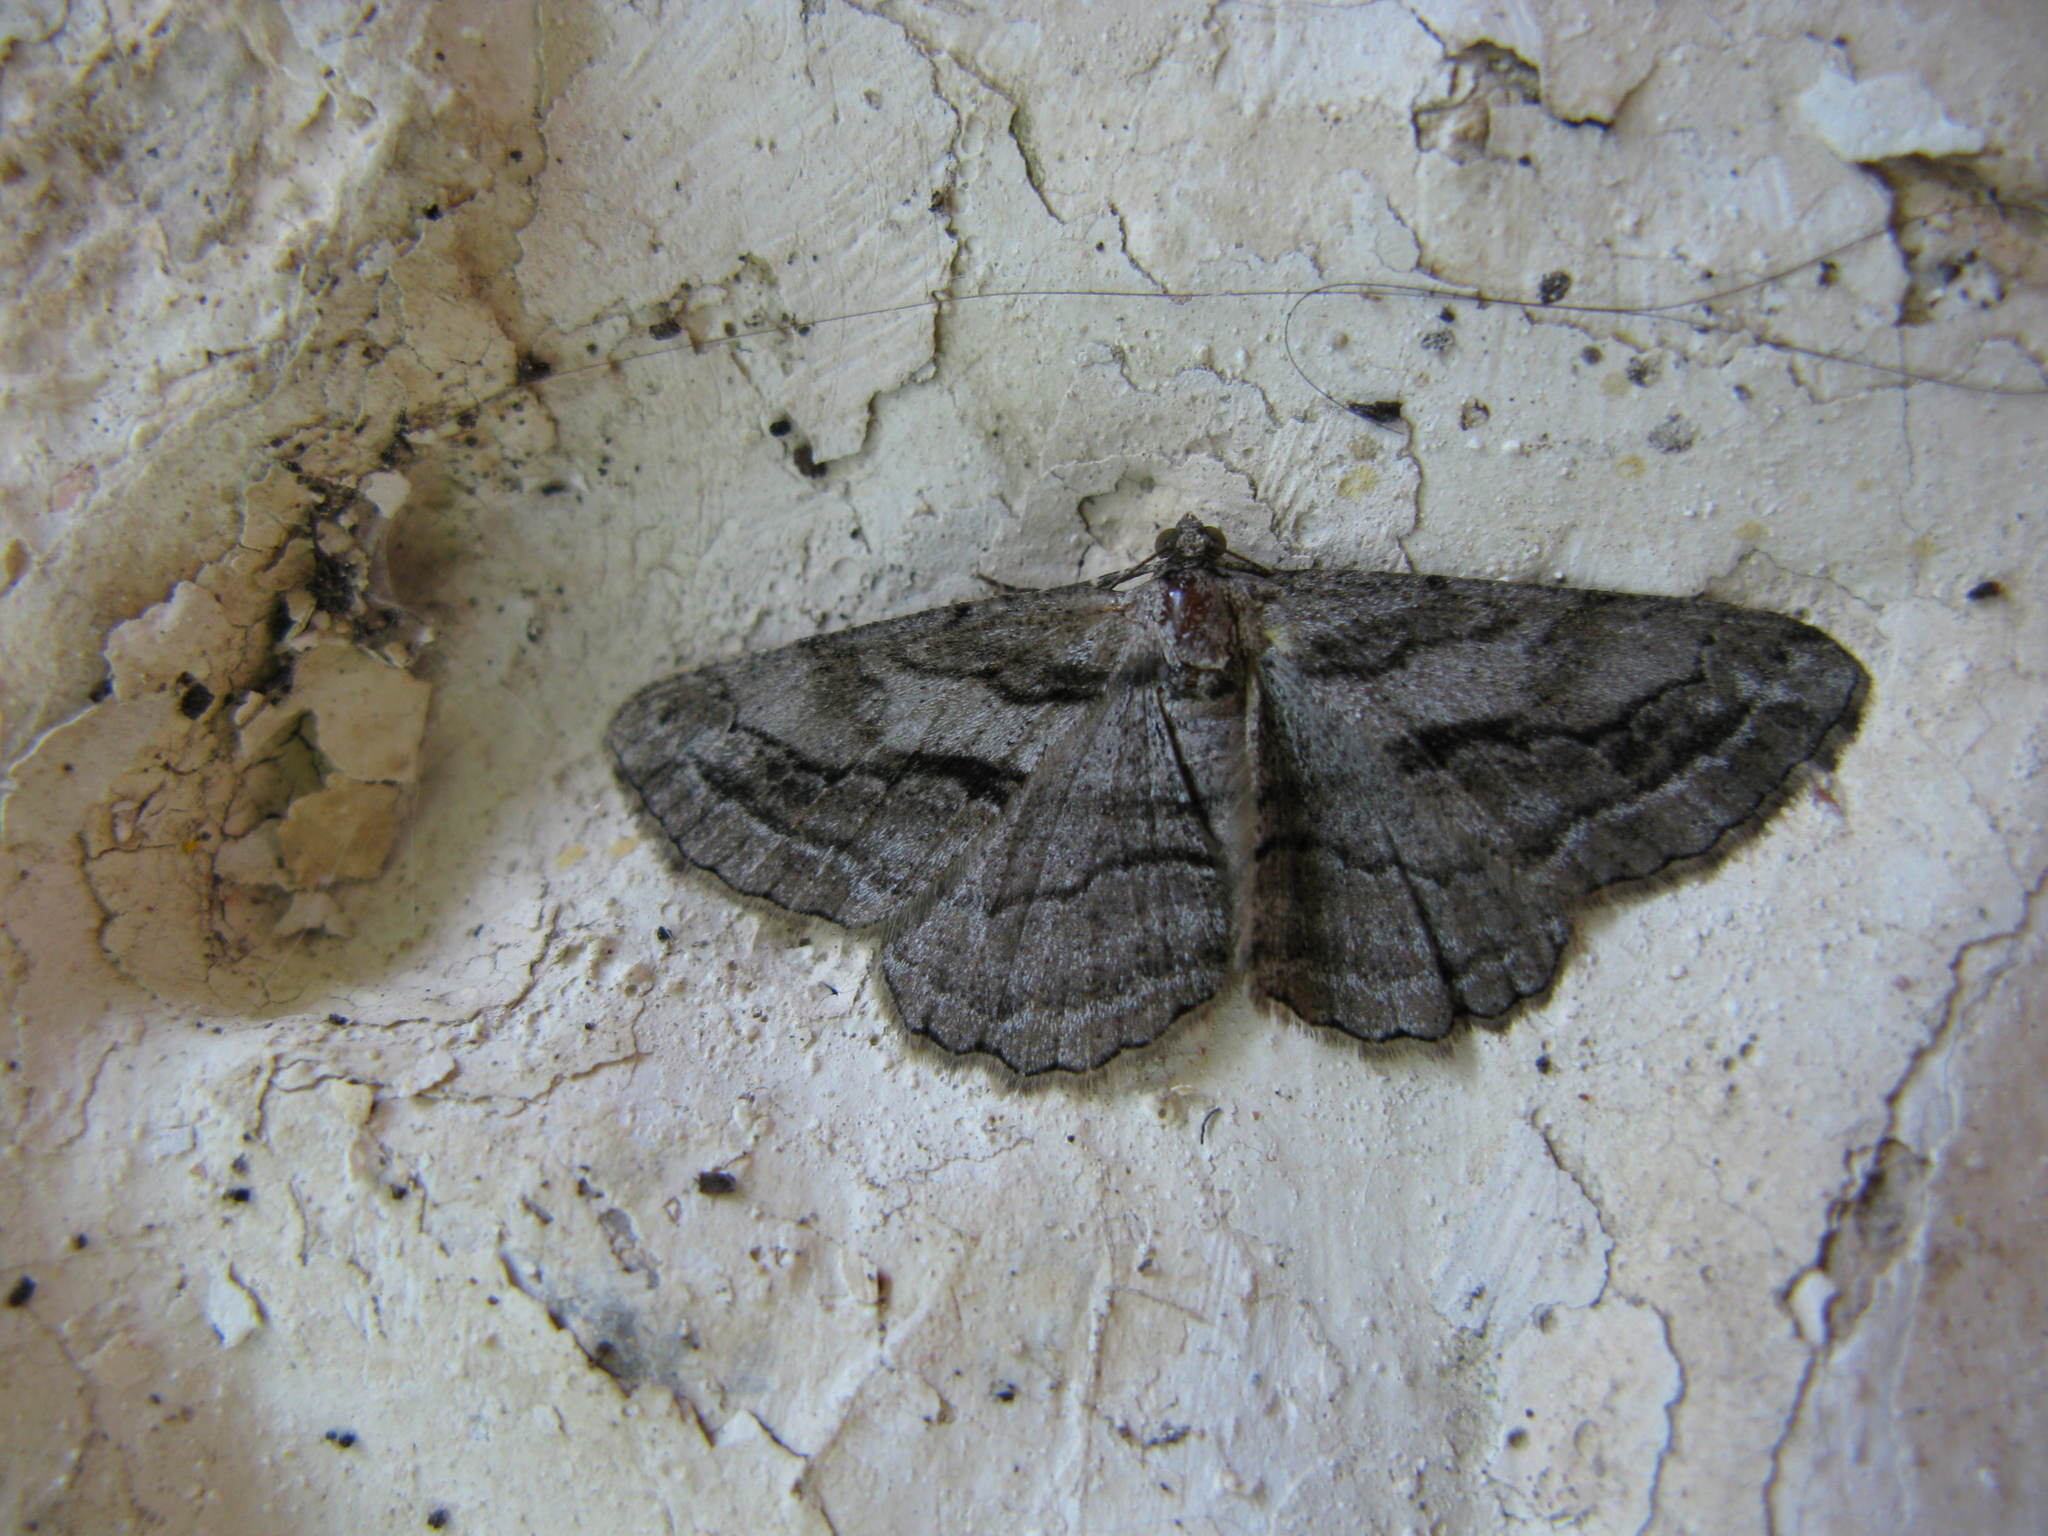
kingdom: Animalia
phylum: Arthropoda
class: Insecta
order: Lepidoptera
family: Geometridae
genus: Peribatodes
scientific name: Peribatodes correptaria
